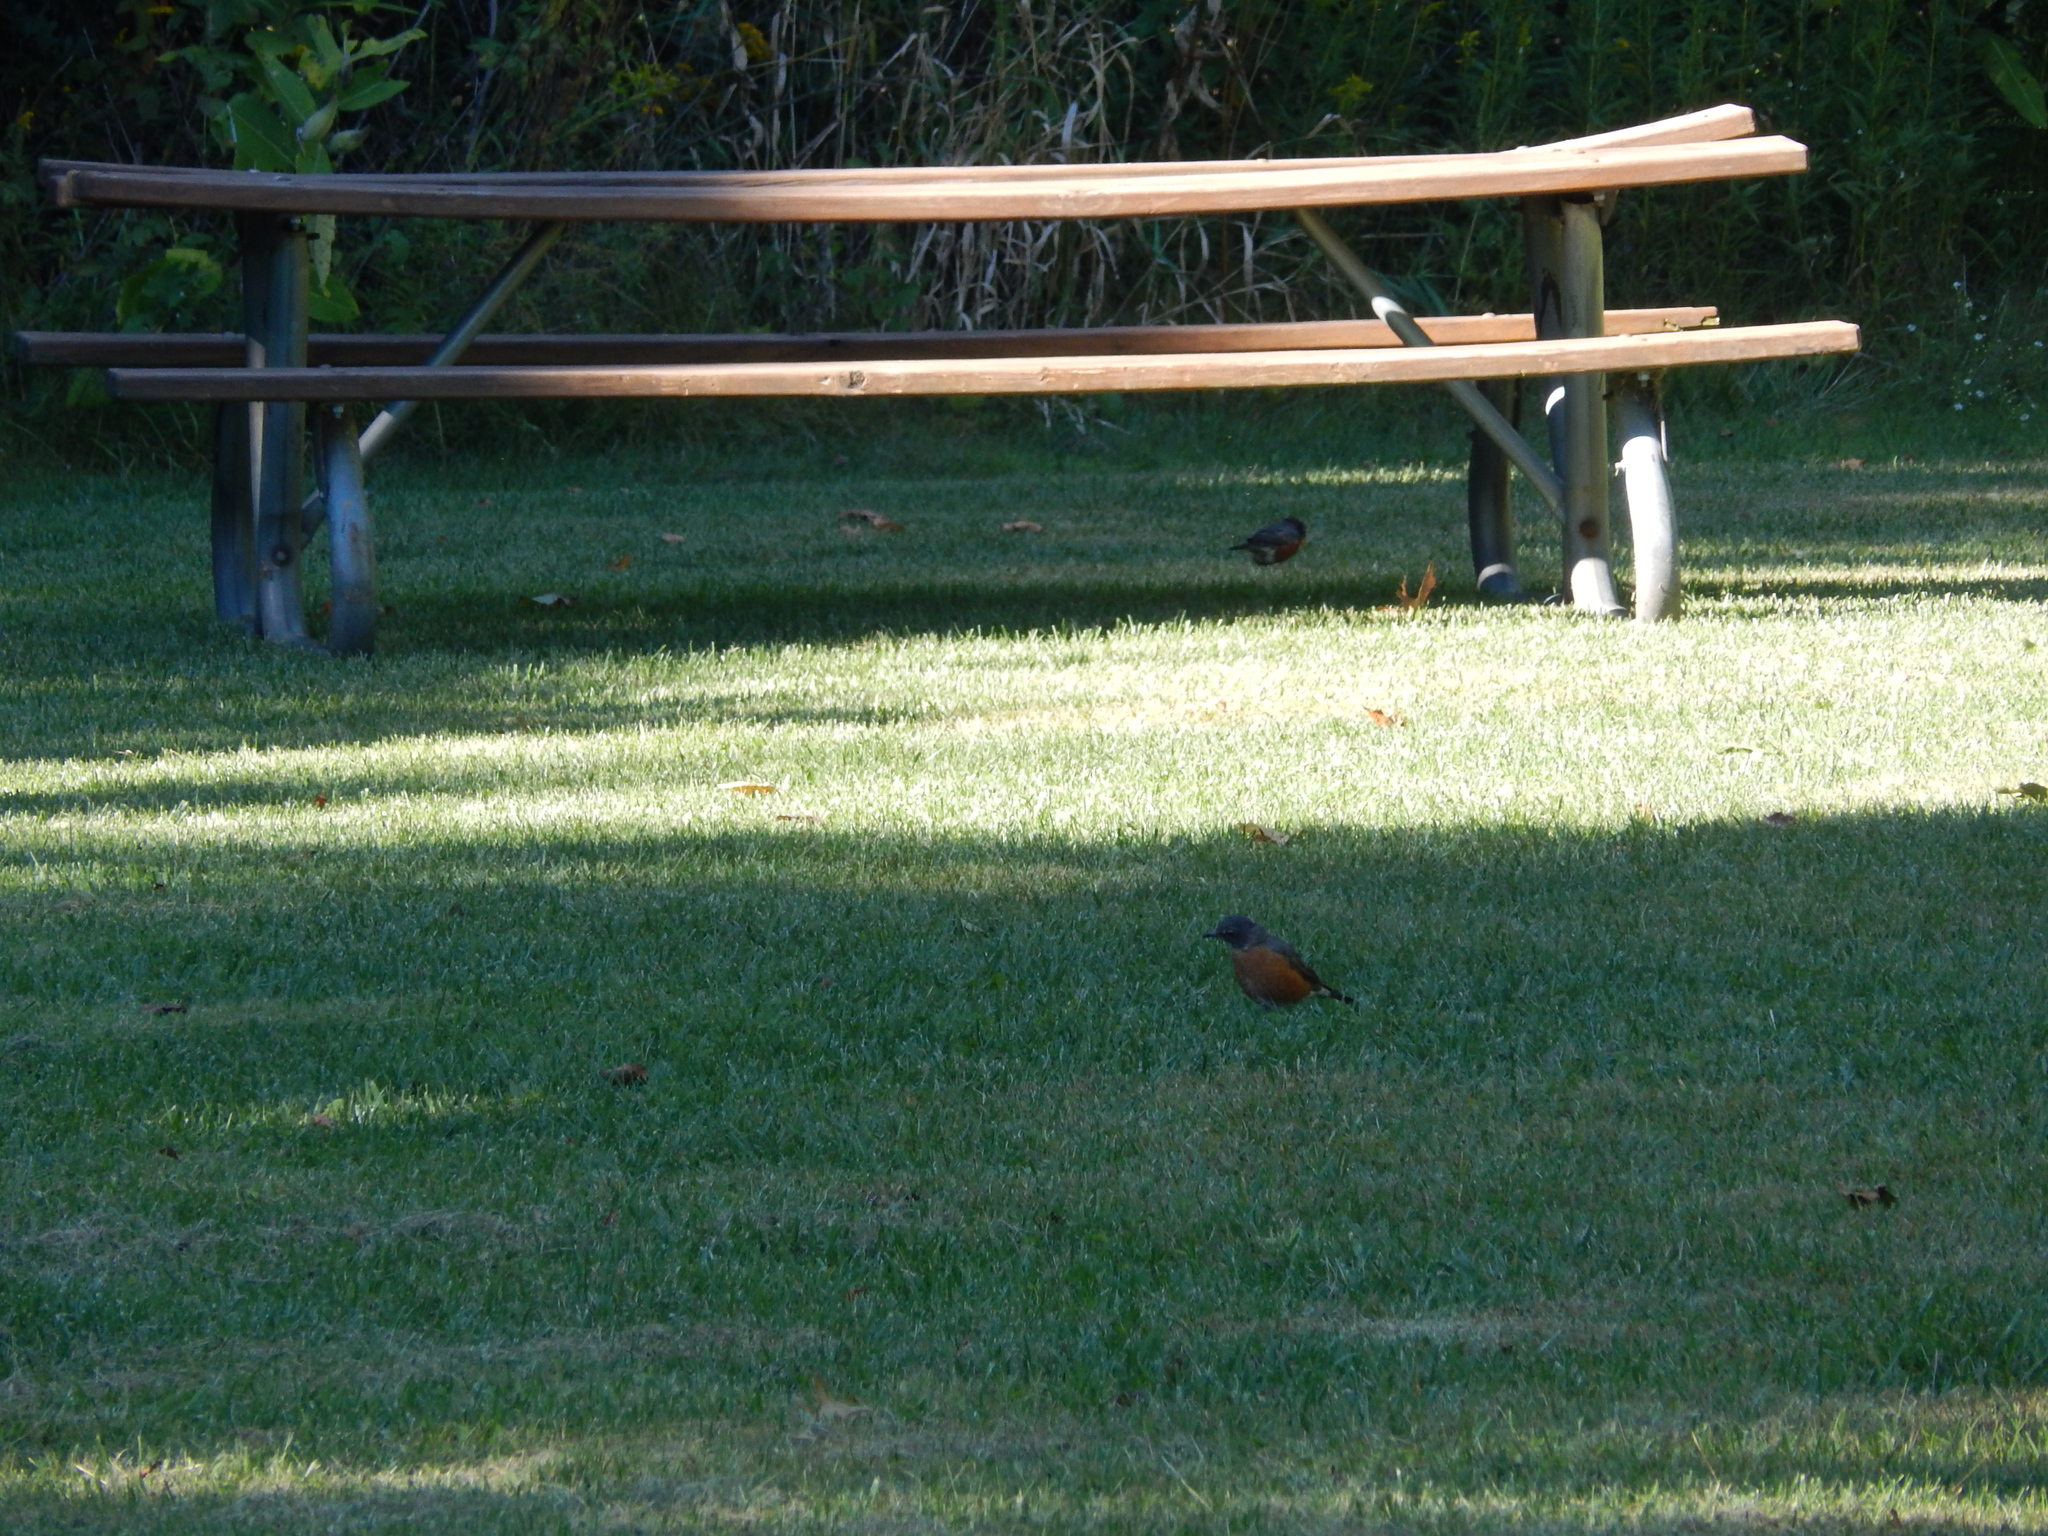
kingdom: Animalia
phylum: Chordata
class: Aves
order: Passeriformes
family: Turdidae
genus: Turdus
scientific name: Turdus migratorius
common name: American robin
